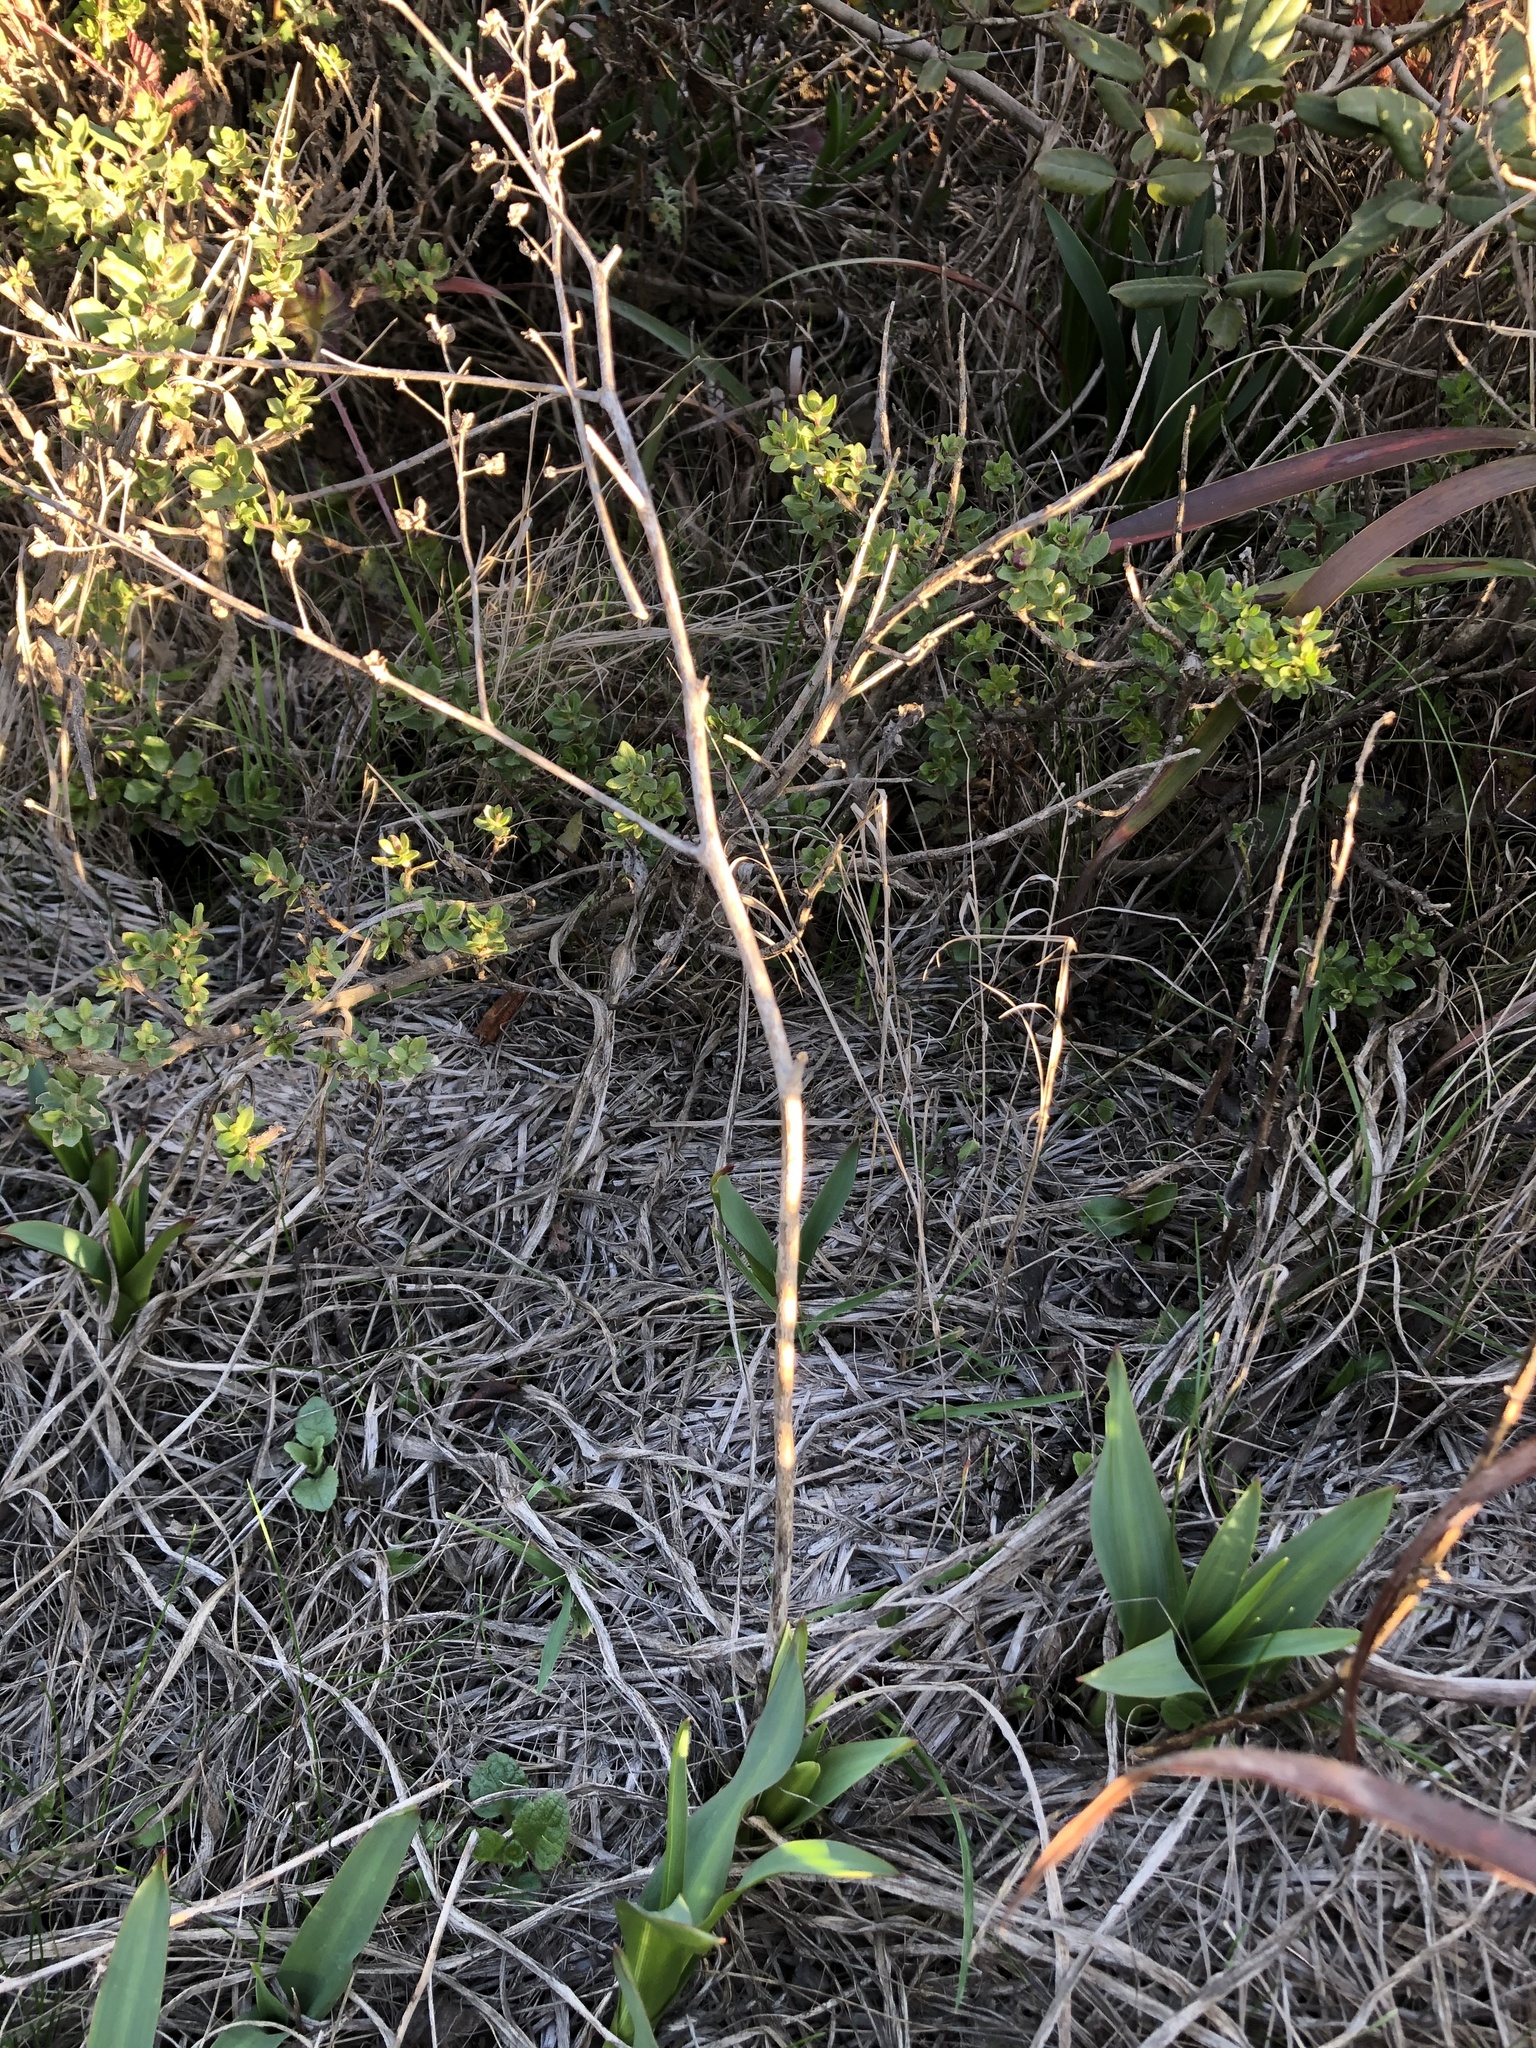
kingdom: Plantae
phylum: Tracheophyta
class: Liliopsida
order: Asparagales
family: Asparagaceae
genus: Chlorogalum
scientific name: Chlorogalum pomeridianum
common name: Amole
